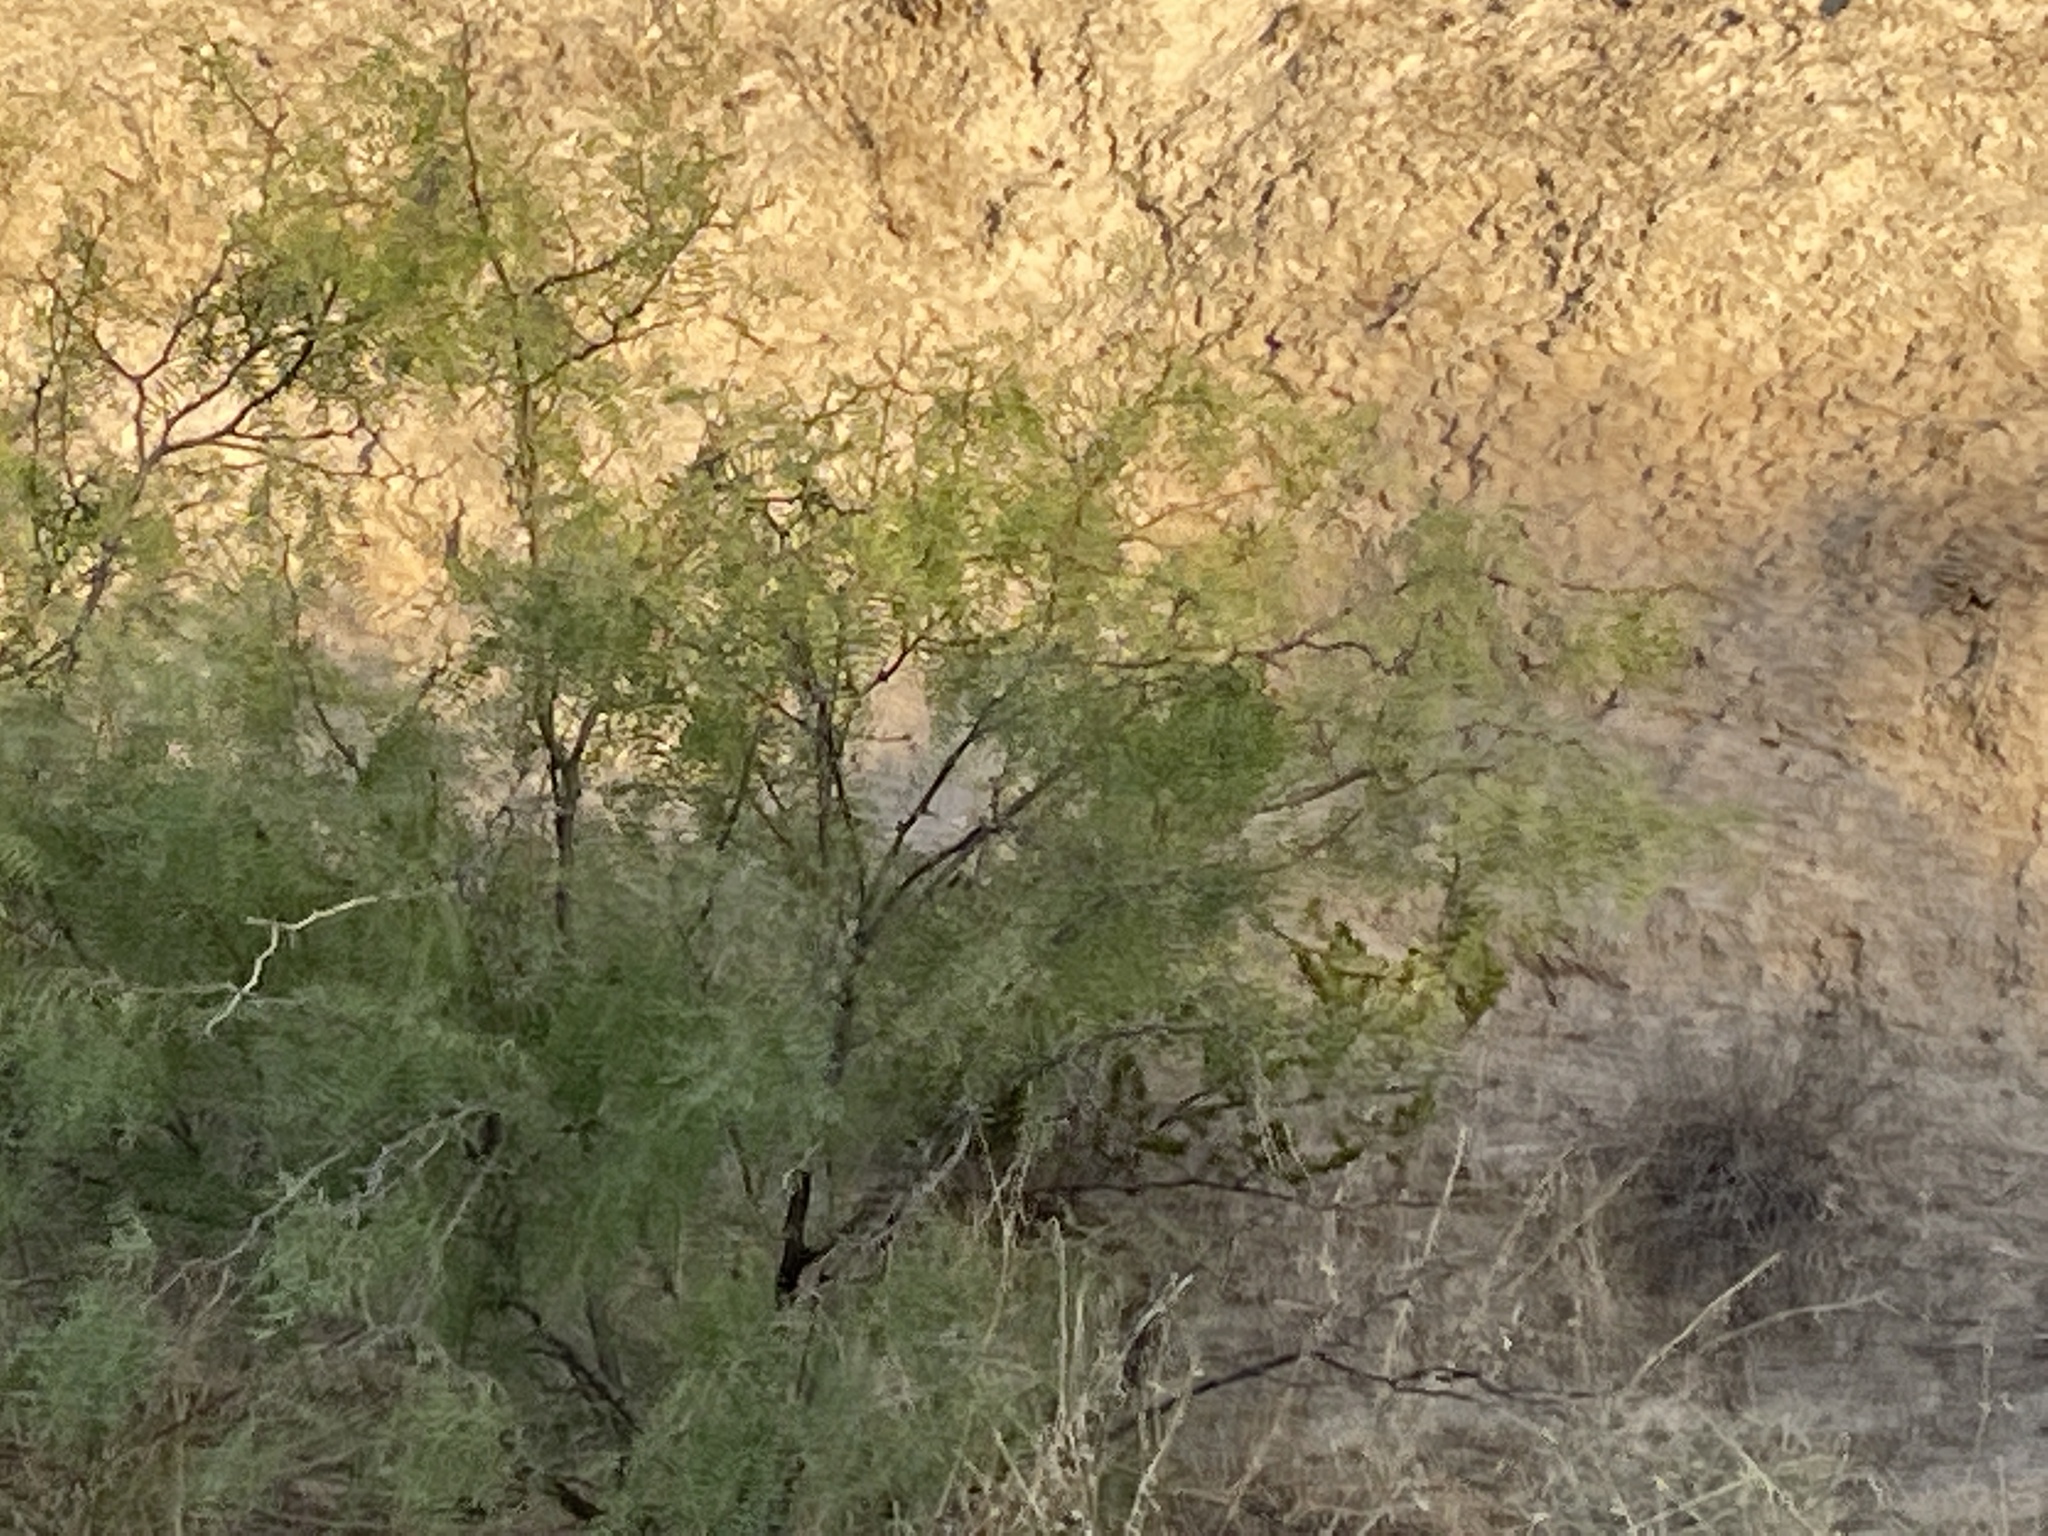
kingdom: Plantae
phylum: Tracheophyta
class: Magnoliopsida
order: Fabales
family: Fabaceae
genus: Prosopis
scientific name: Prosopis glandulosa
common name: Honey mesquite
